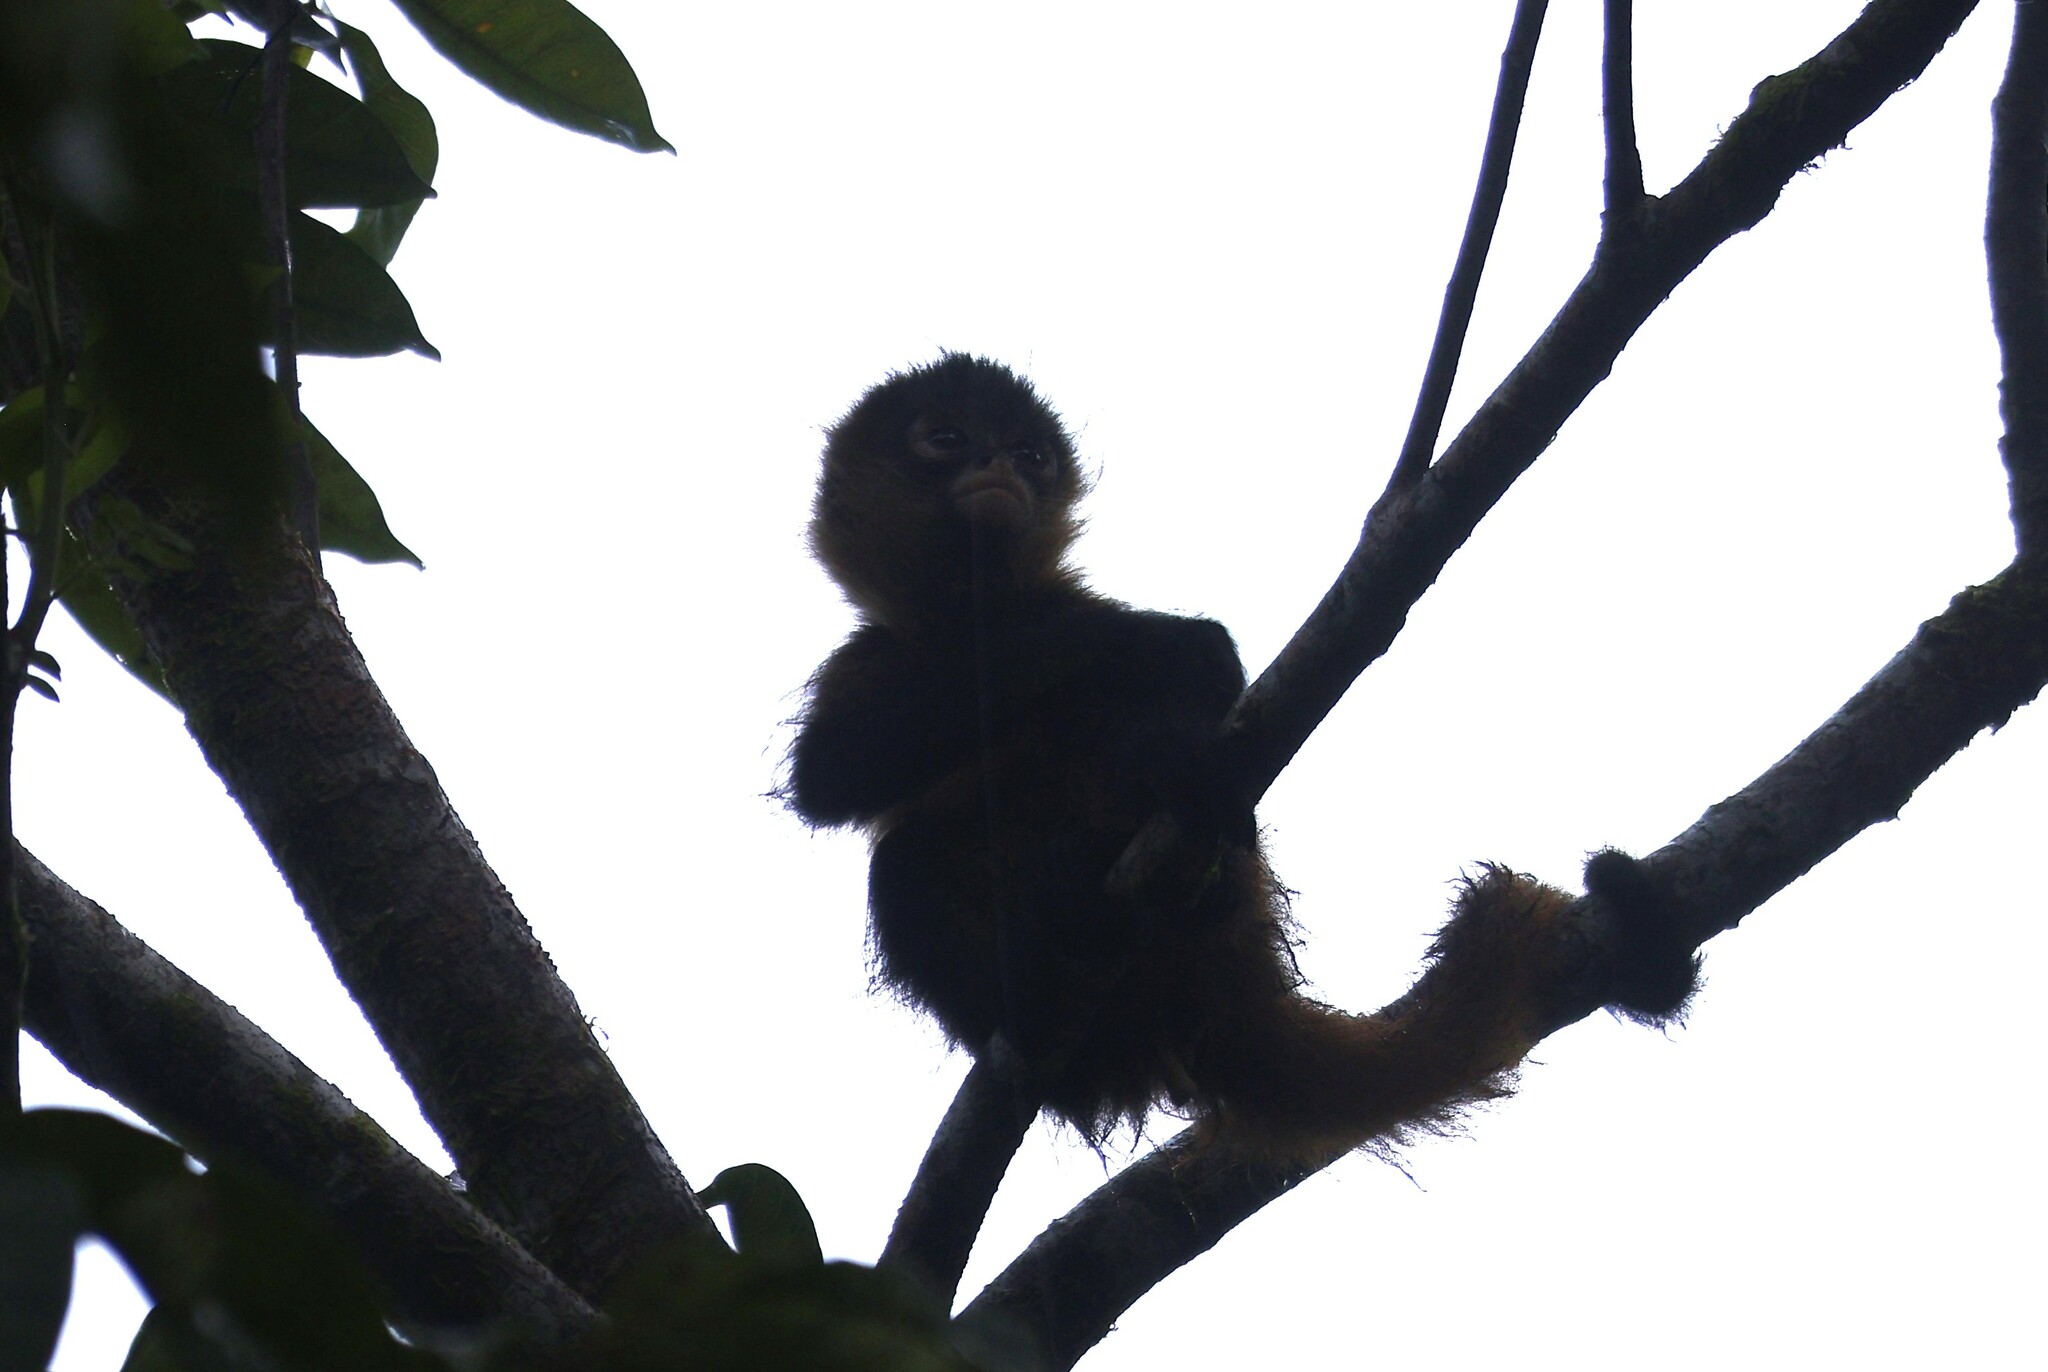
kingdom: Animalia
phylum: Chordata
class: Mammalia
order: Primates
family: Atelidae
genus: Ateles
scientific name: Ateles geoffroyi
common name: Black-handed spider monkey
